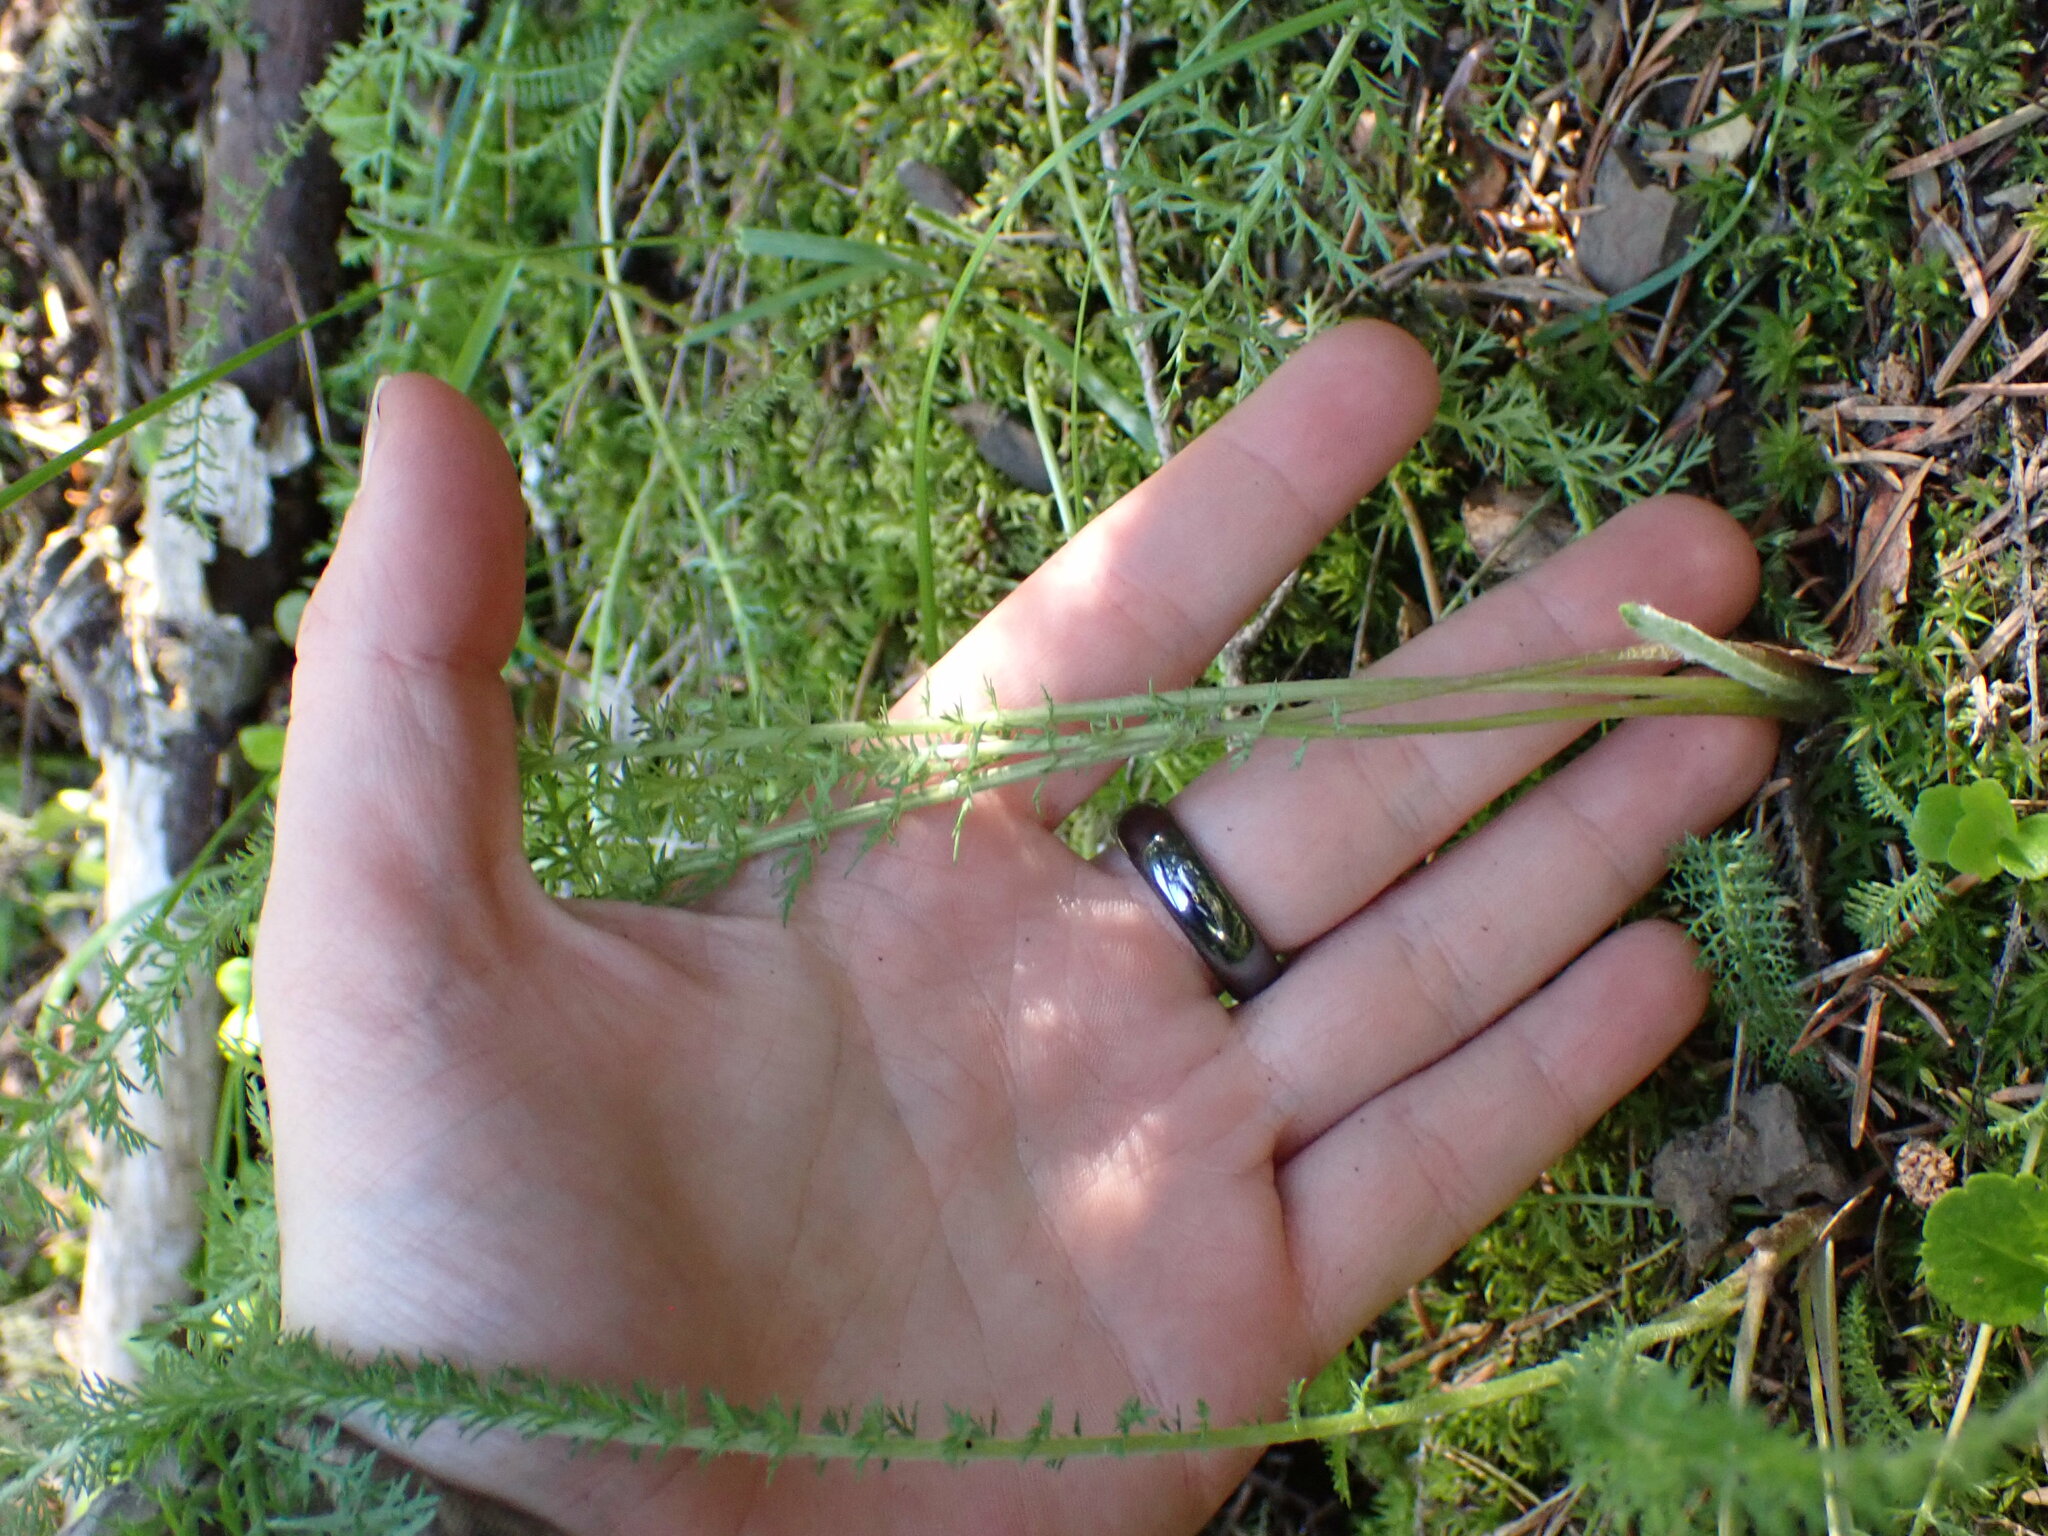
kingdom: Plantae
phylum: Tracheophyta
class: Magnoliopsida
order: Asterales
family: Asteraceae
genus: Achillea
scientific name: Achillea millefolium
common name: Yarrow
